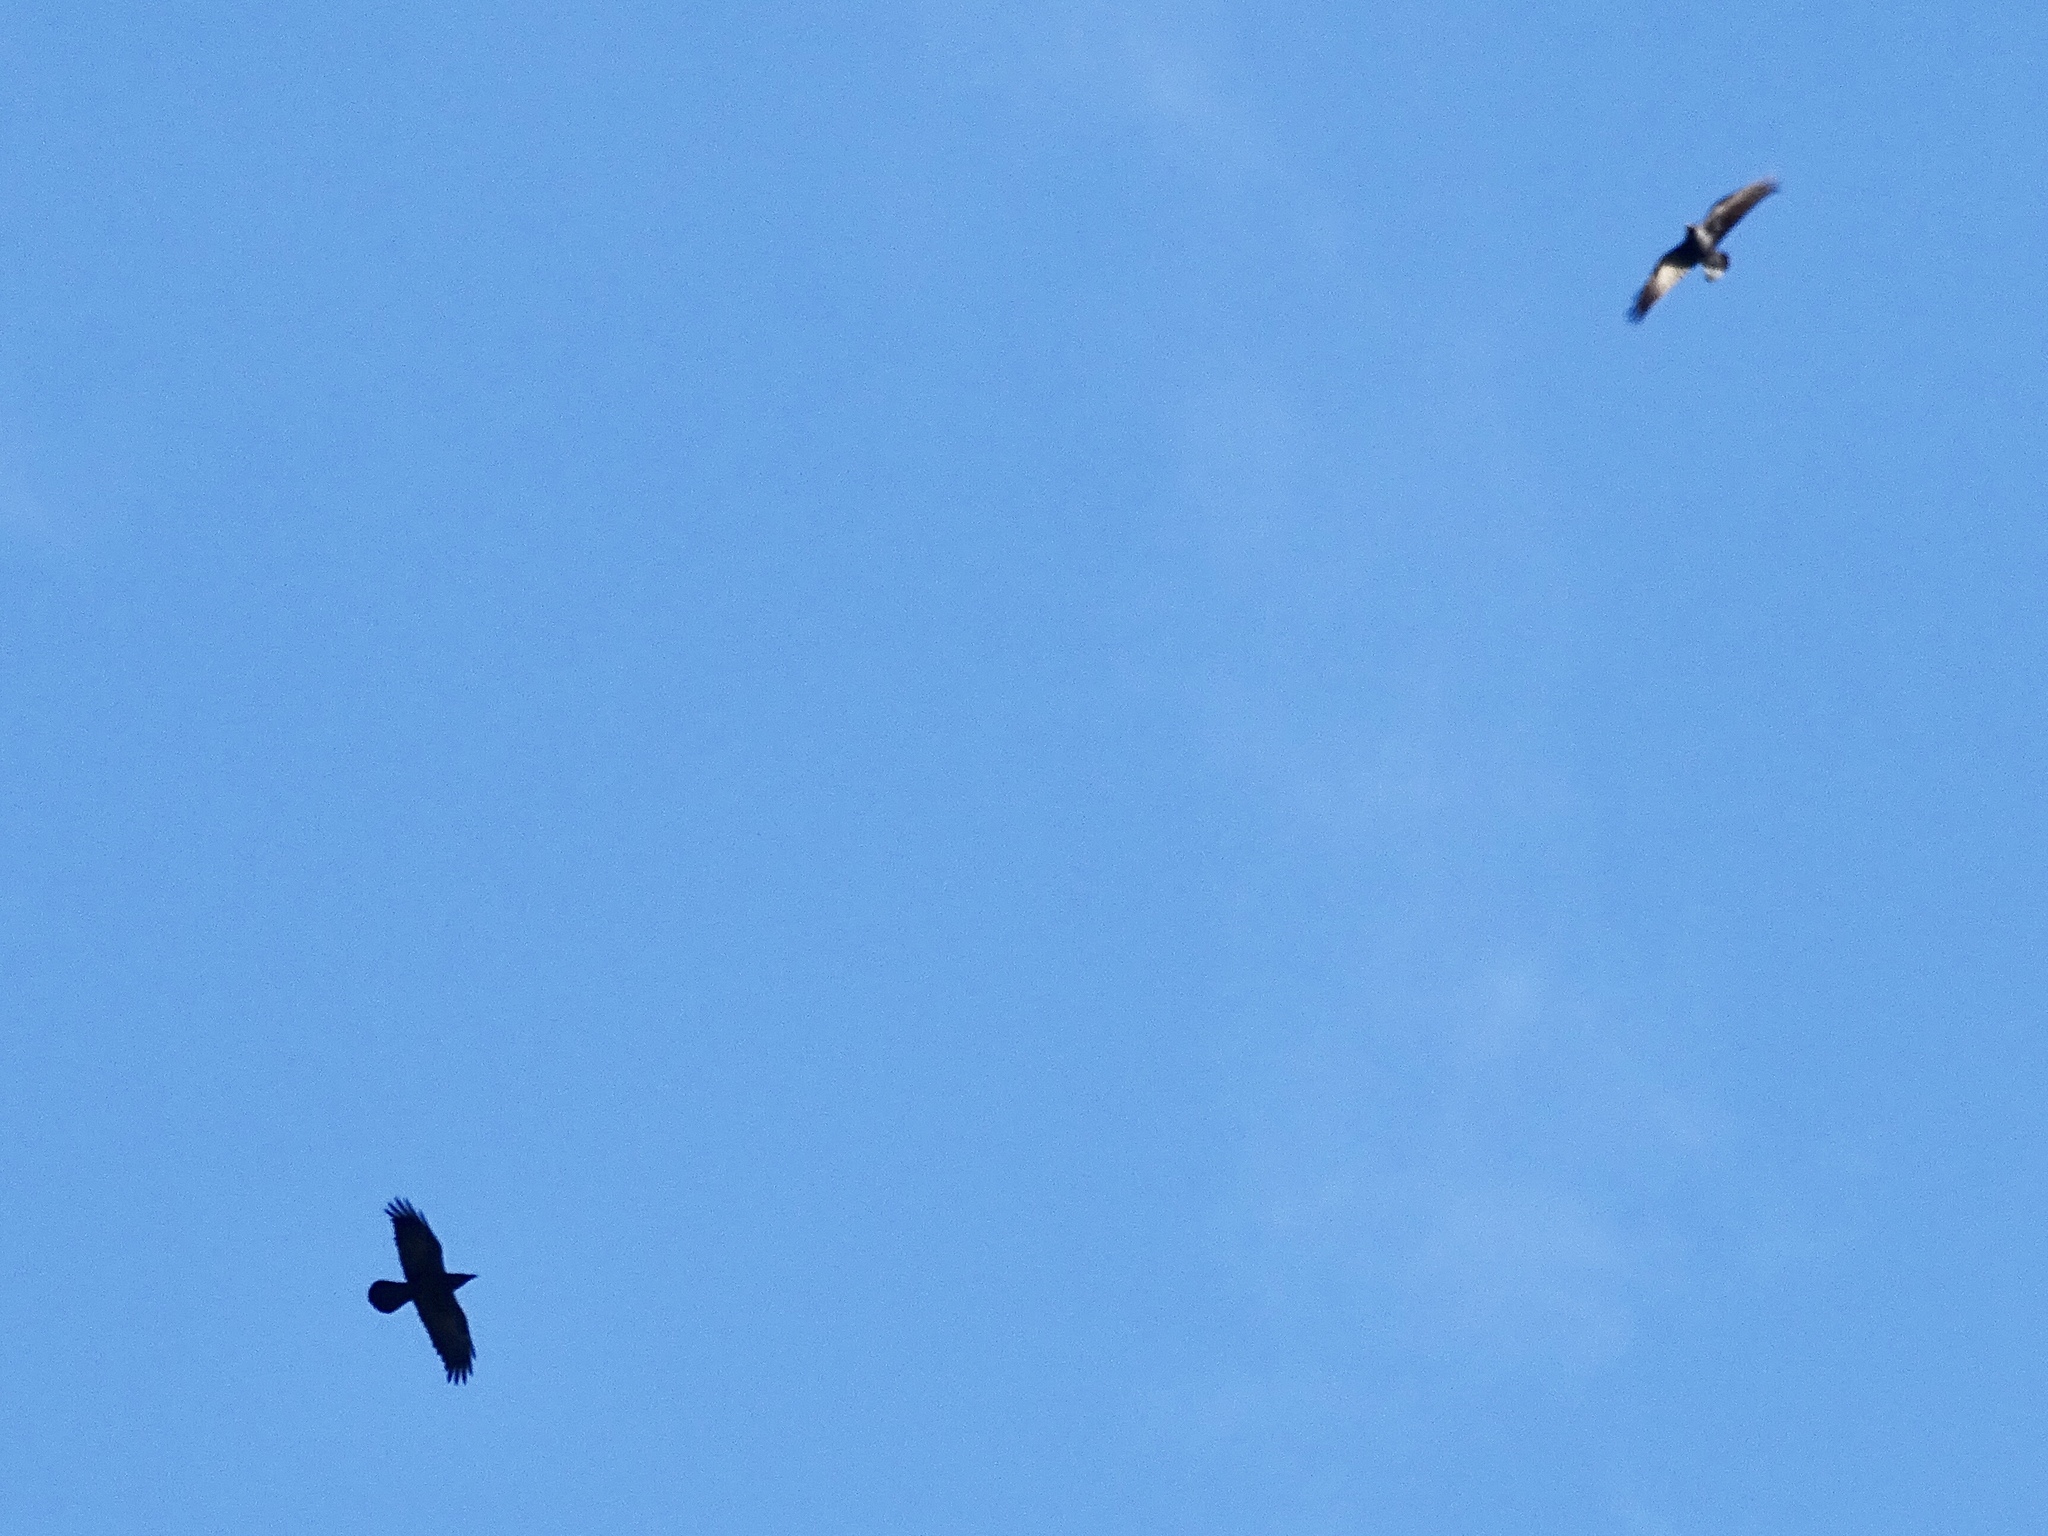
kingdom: Animalia
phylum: Chordata
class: Aves
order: Passeriformes
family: Corvidae
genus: Corvus
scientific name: Corvus corax
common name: Common raven
